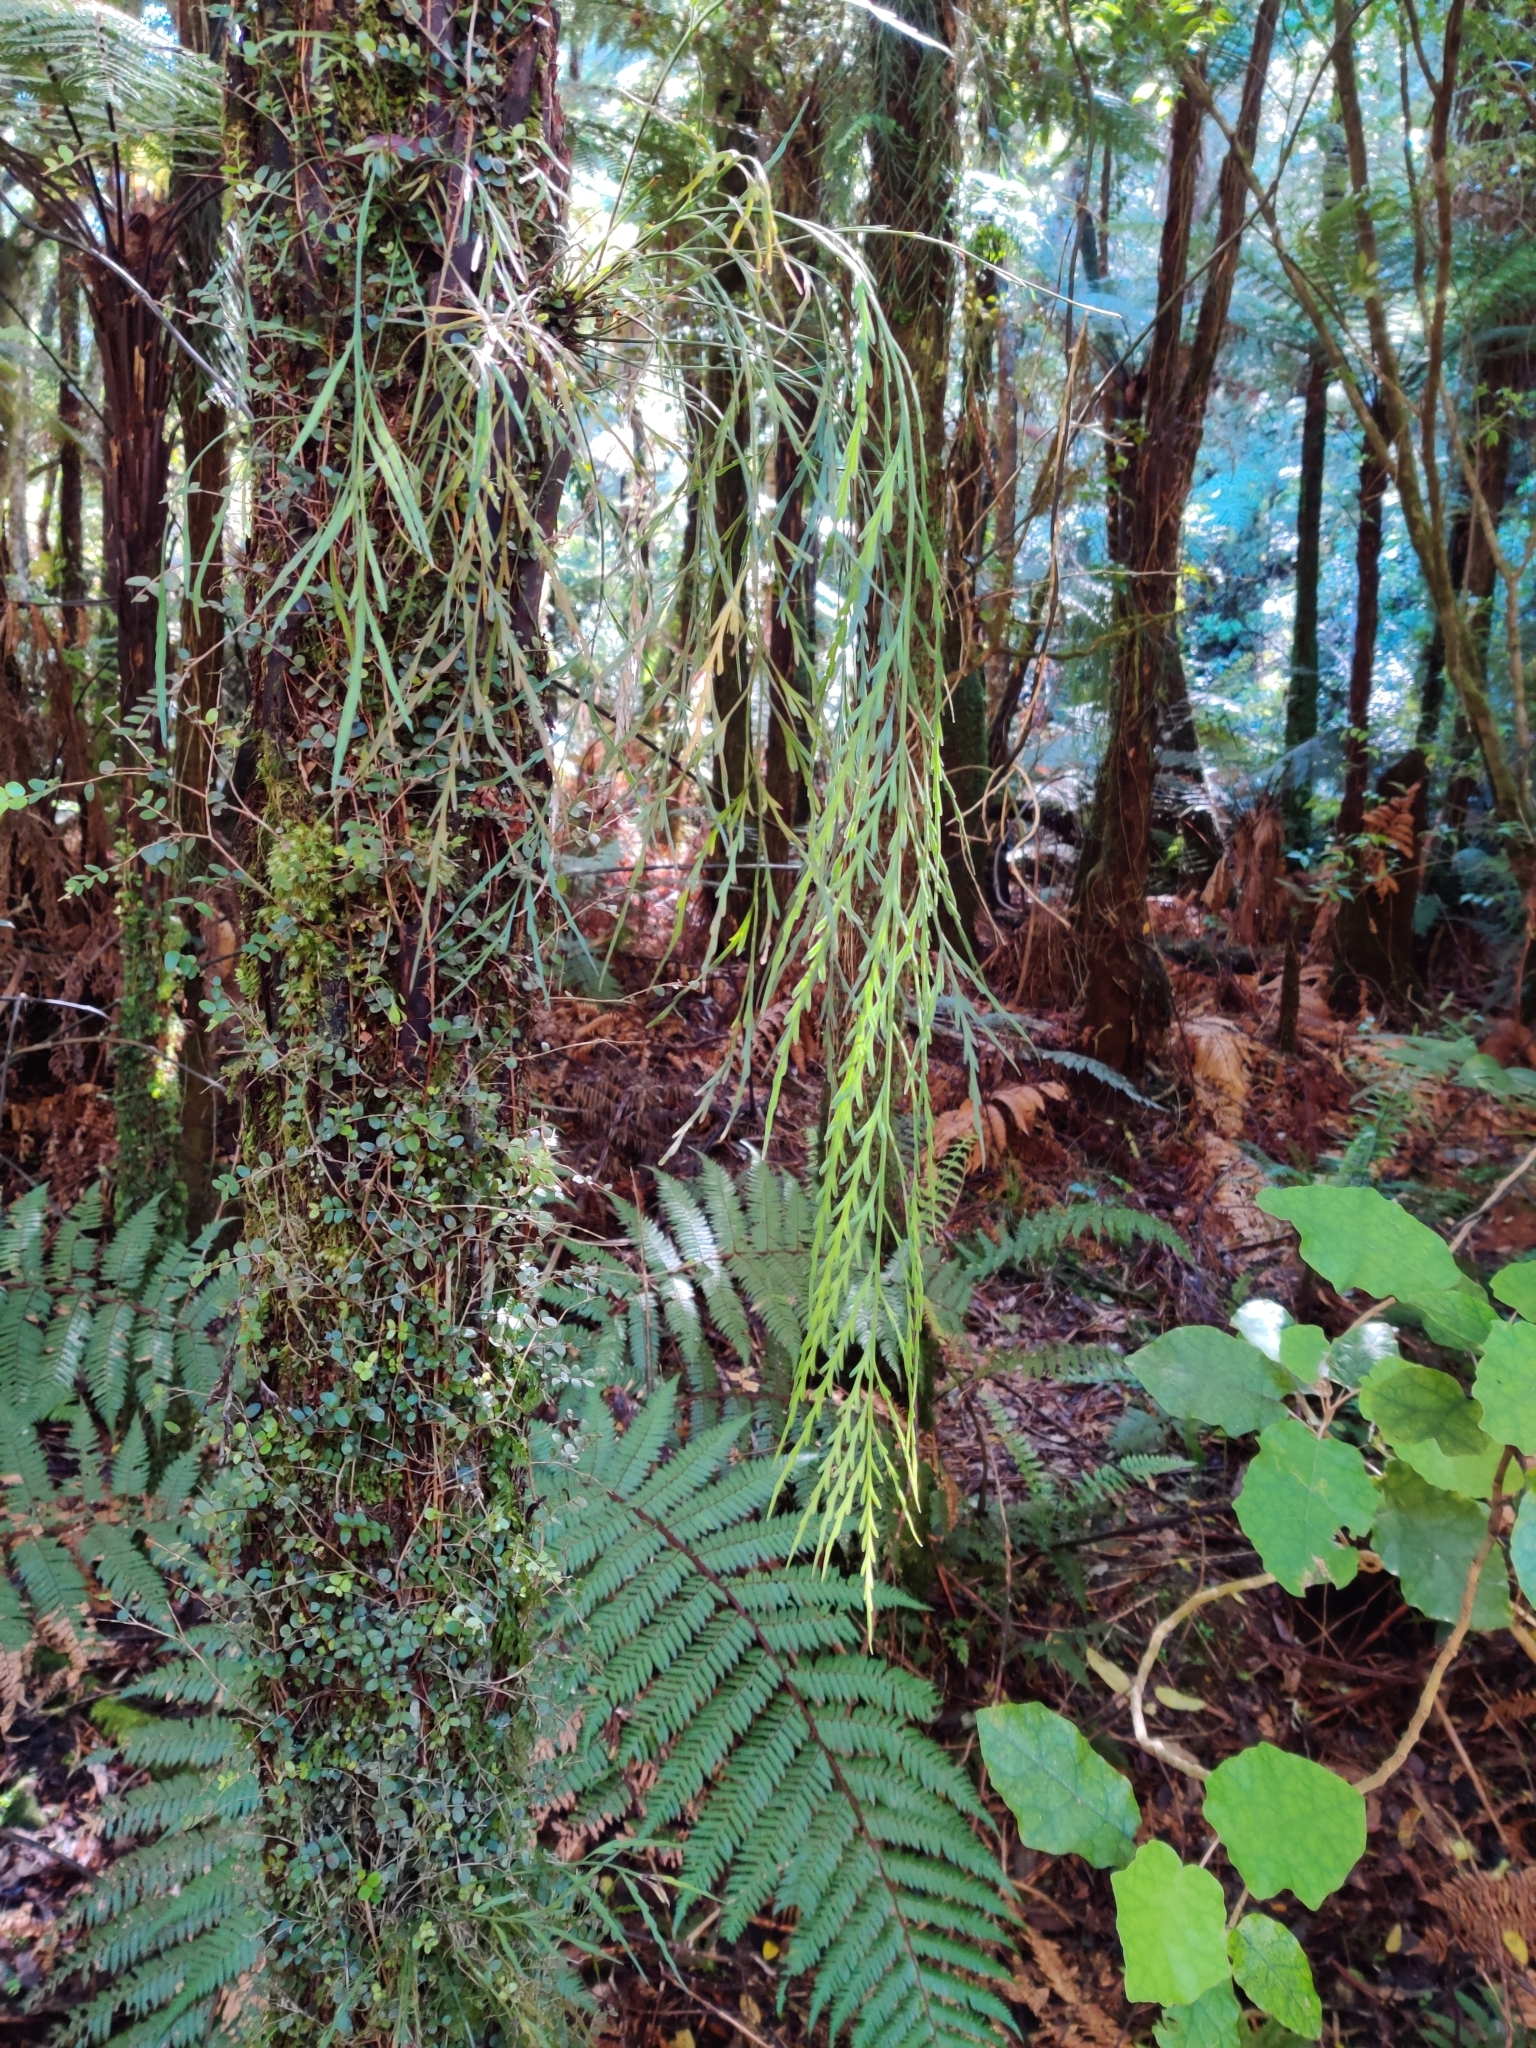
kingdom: Plantae
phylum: Tracheophyta
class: Polypodiopsida
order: Polypodiales
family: Aspleniaceae
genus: Asplenium
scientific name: Asplenium flaccidum
